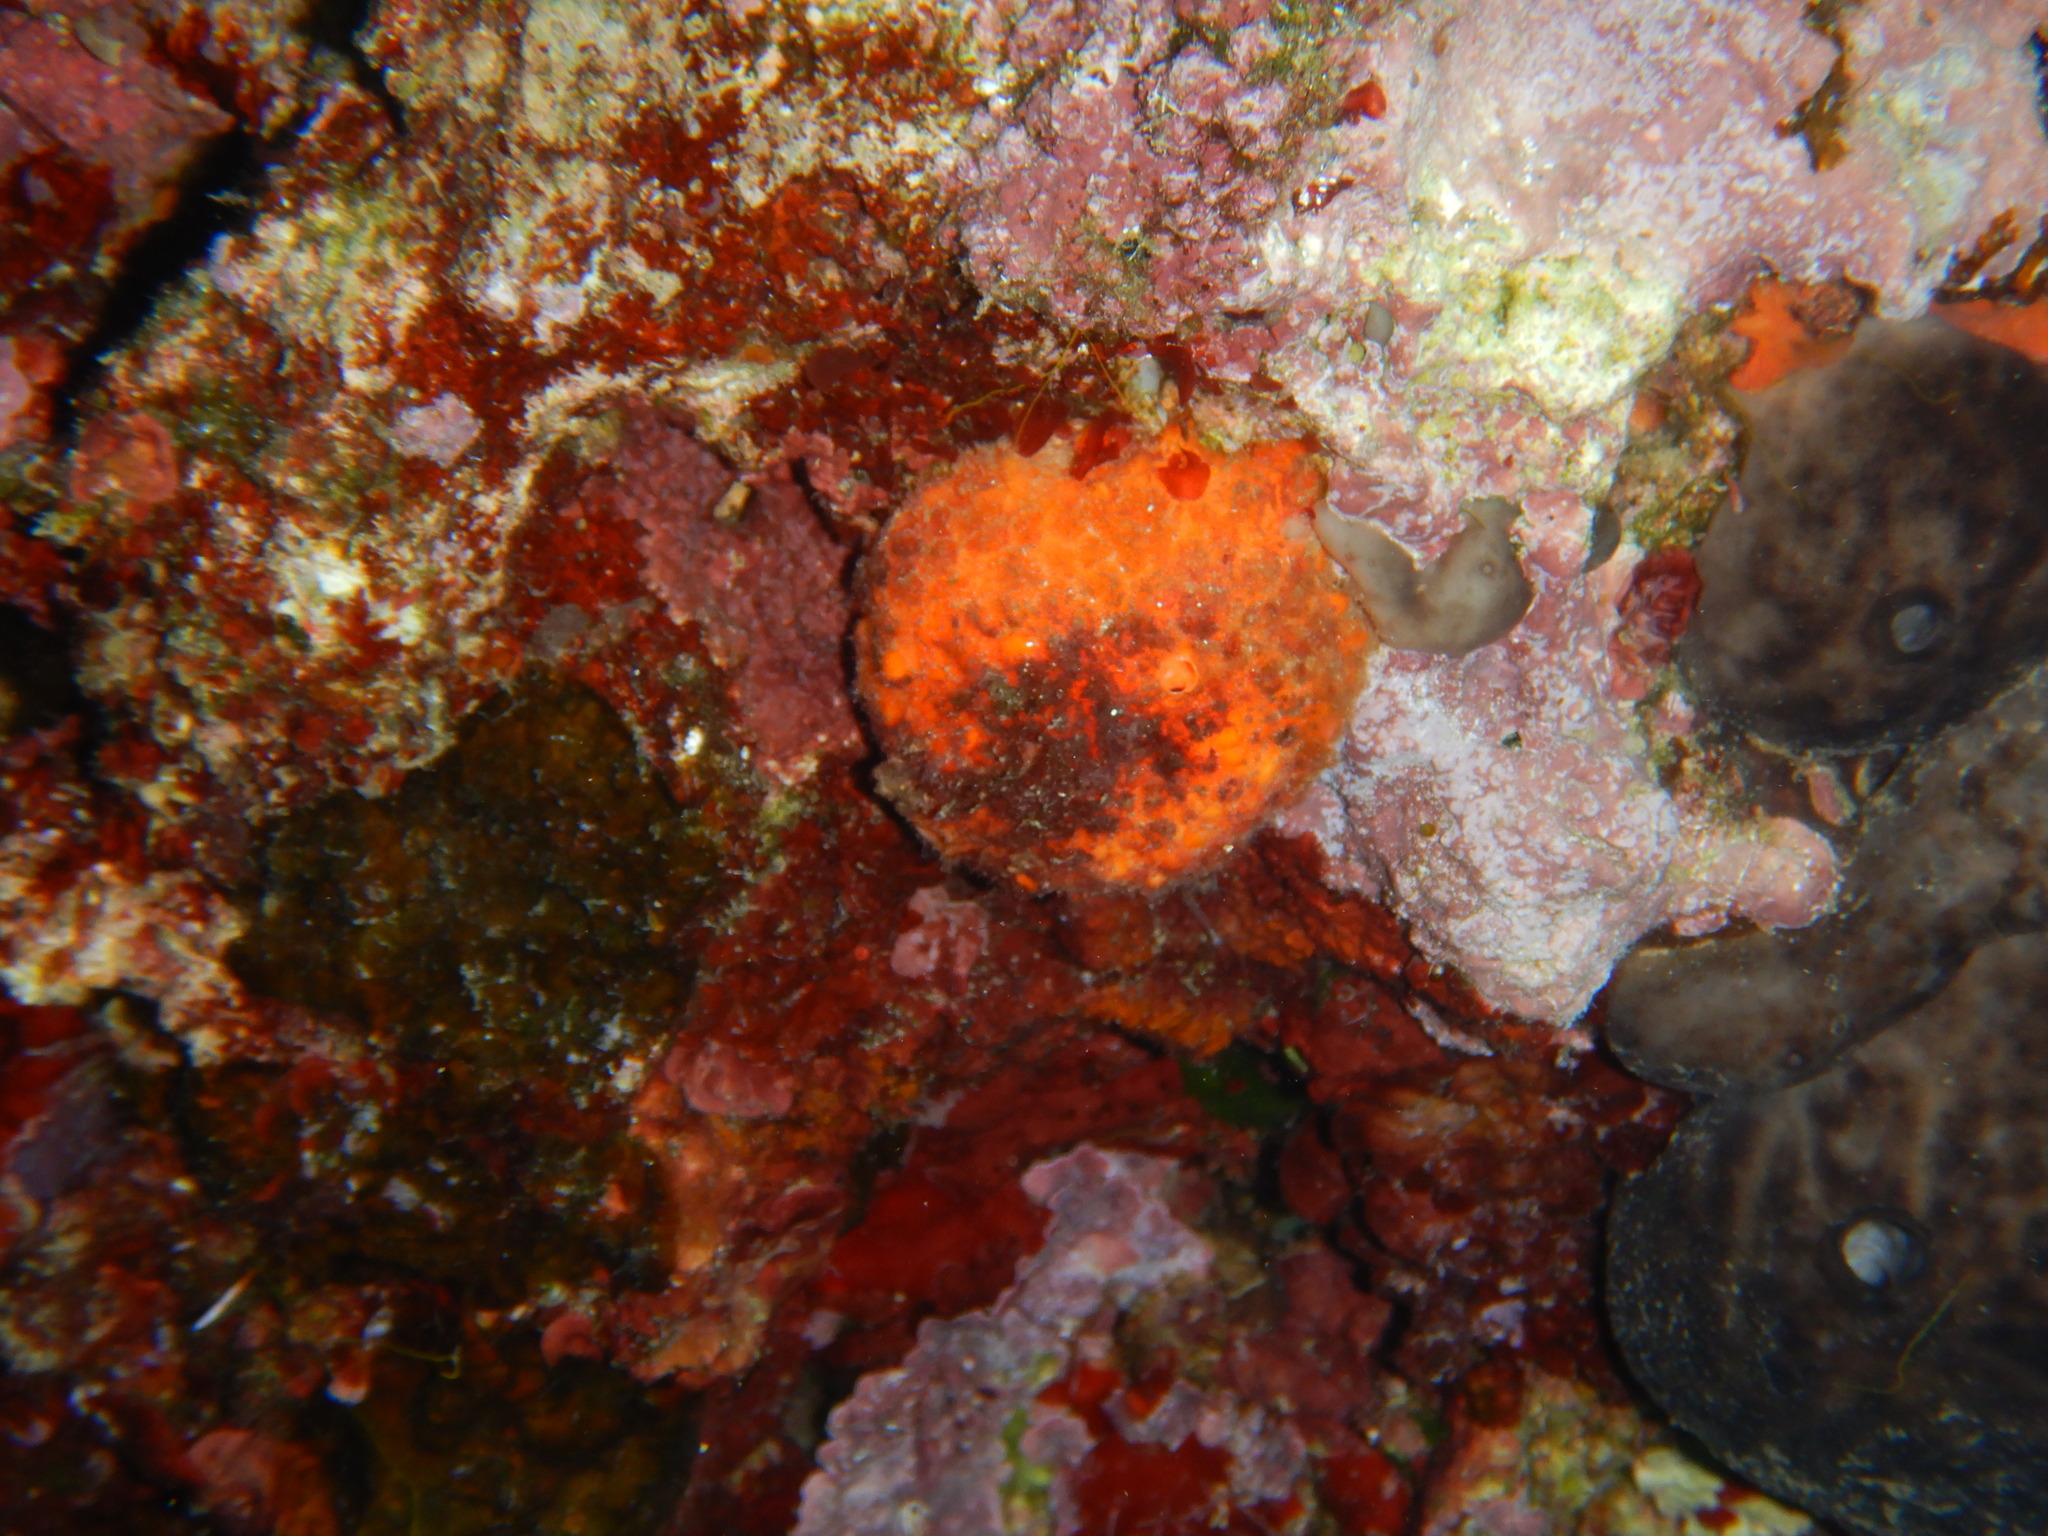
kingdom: Animalia
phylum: Porifera
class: Demospongiae
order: Tethyida
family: Tethyidae
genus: Tethya
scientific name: Tethya aurantium
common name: Golf ball sponge
